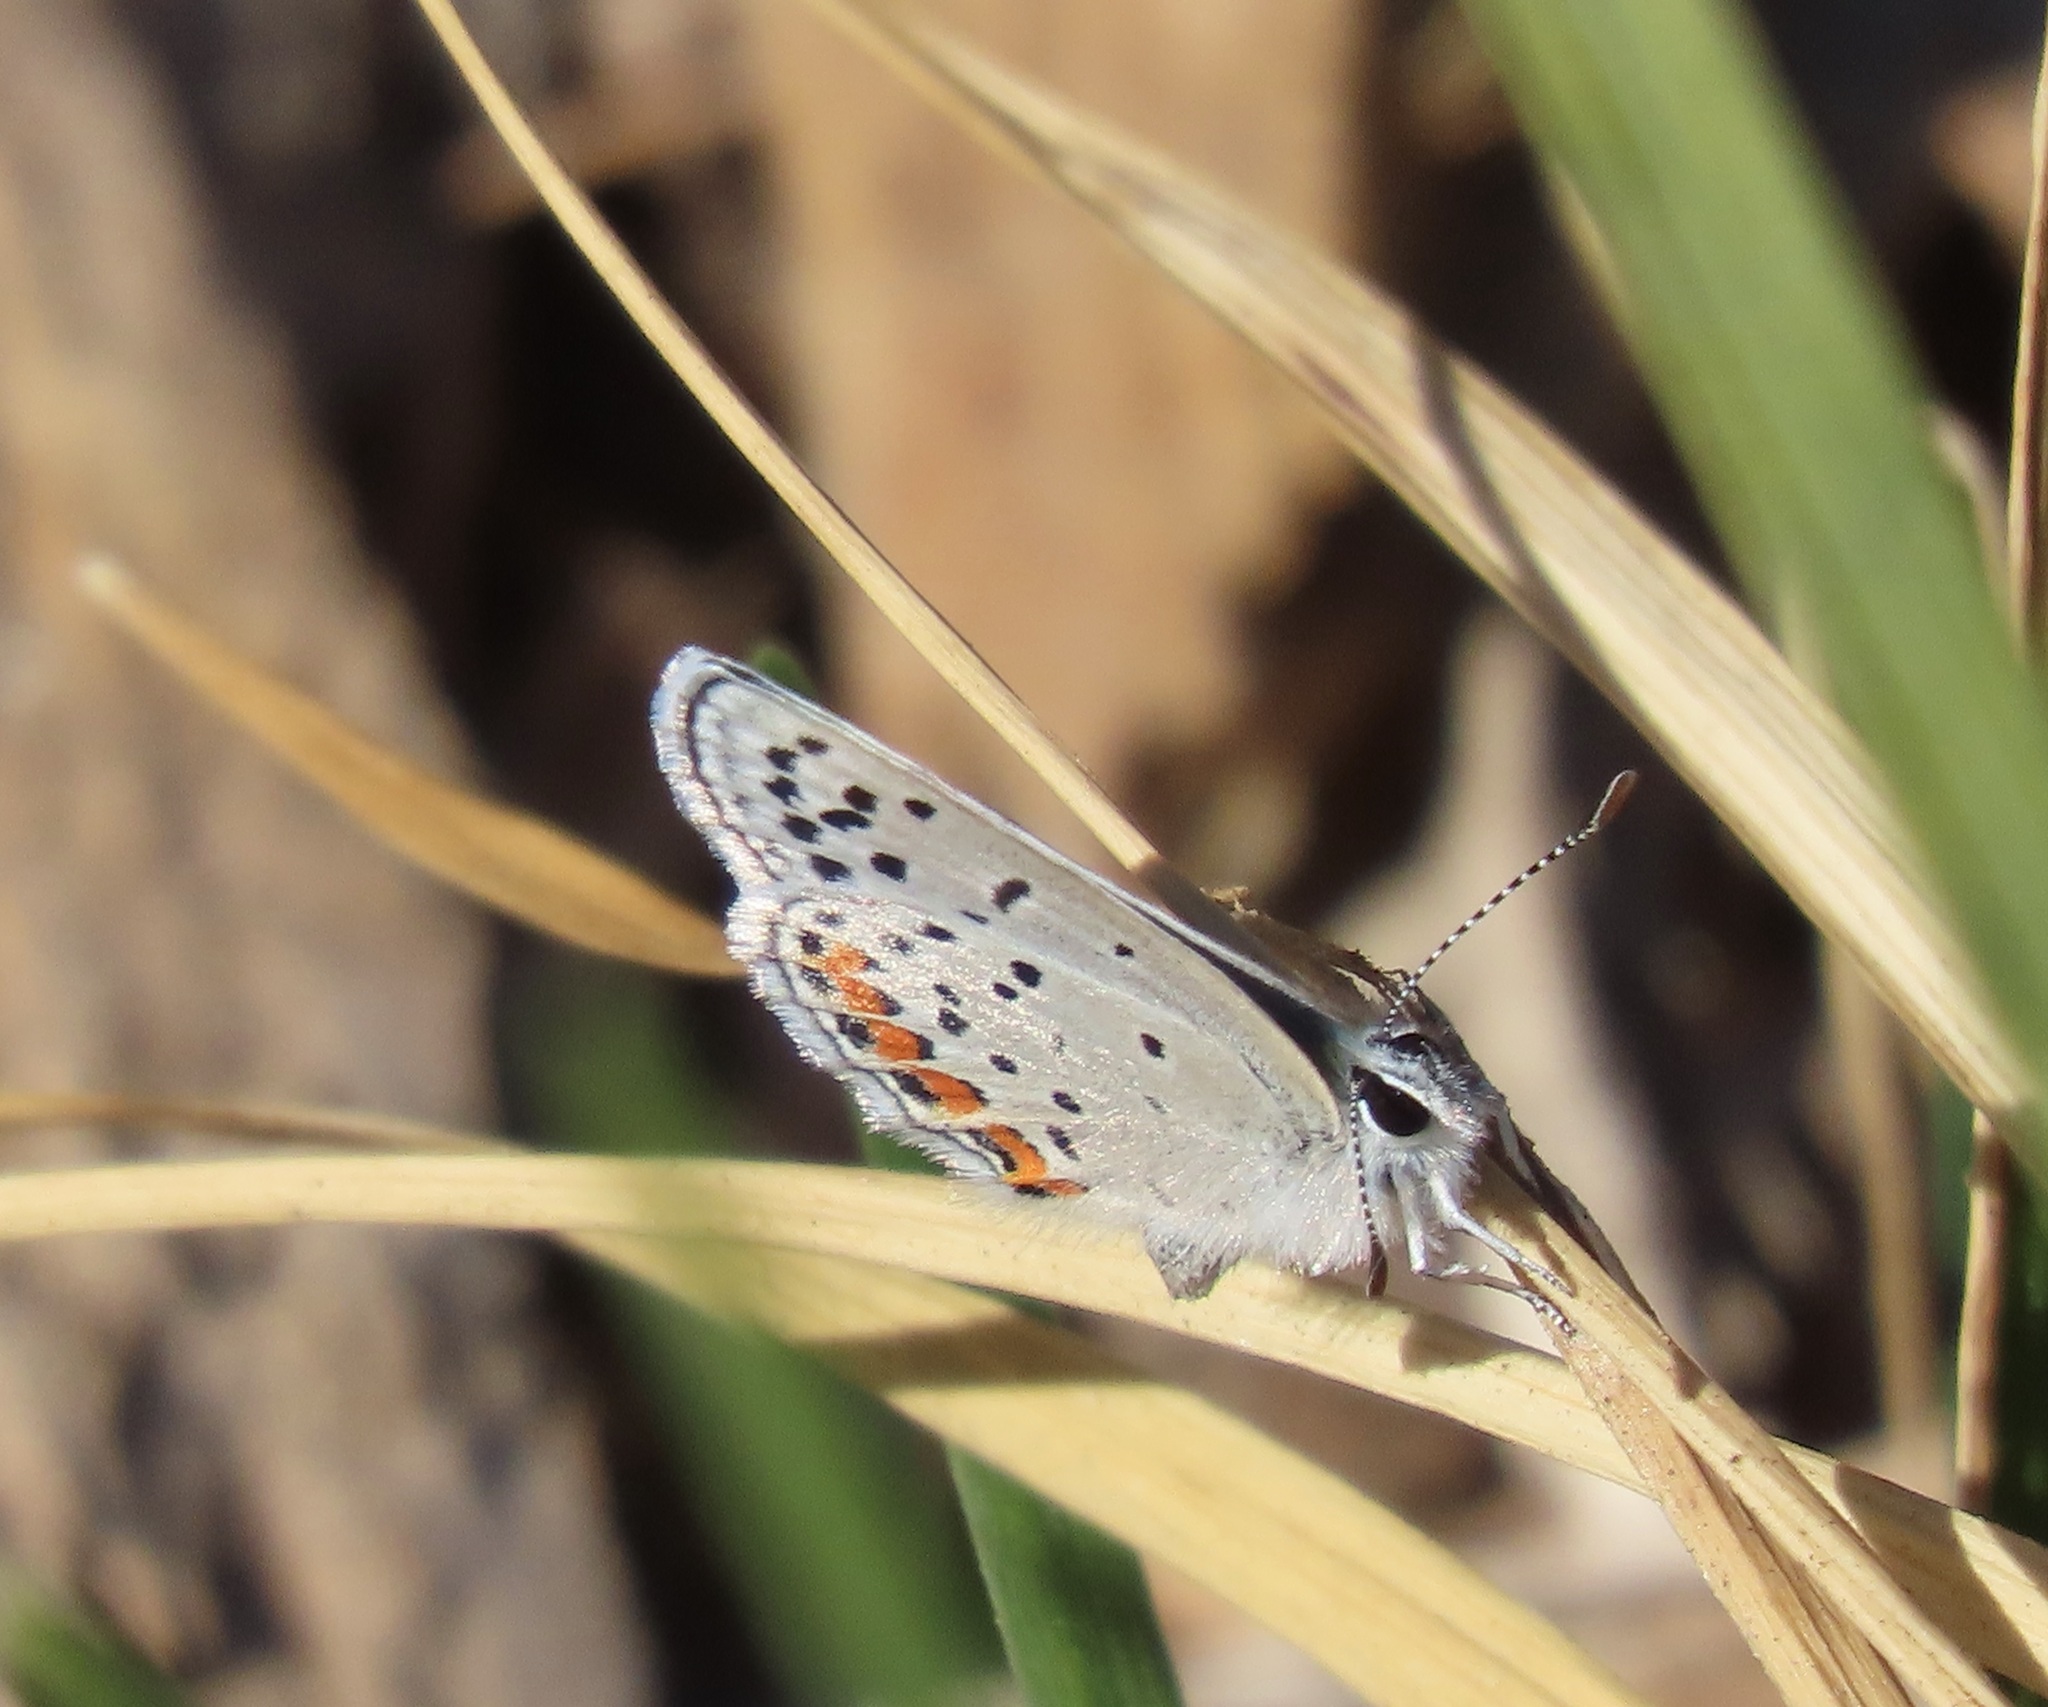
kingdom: Animalia
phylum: Arthropoda
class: Insecta
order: Lepidoptera
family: Lycaenidae
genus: Icaricia
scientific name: Icaricia acmon
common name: Acmon blue
